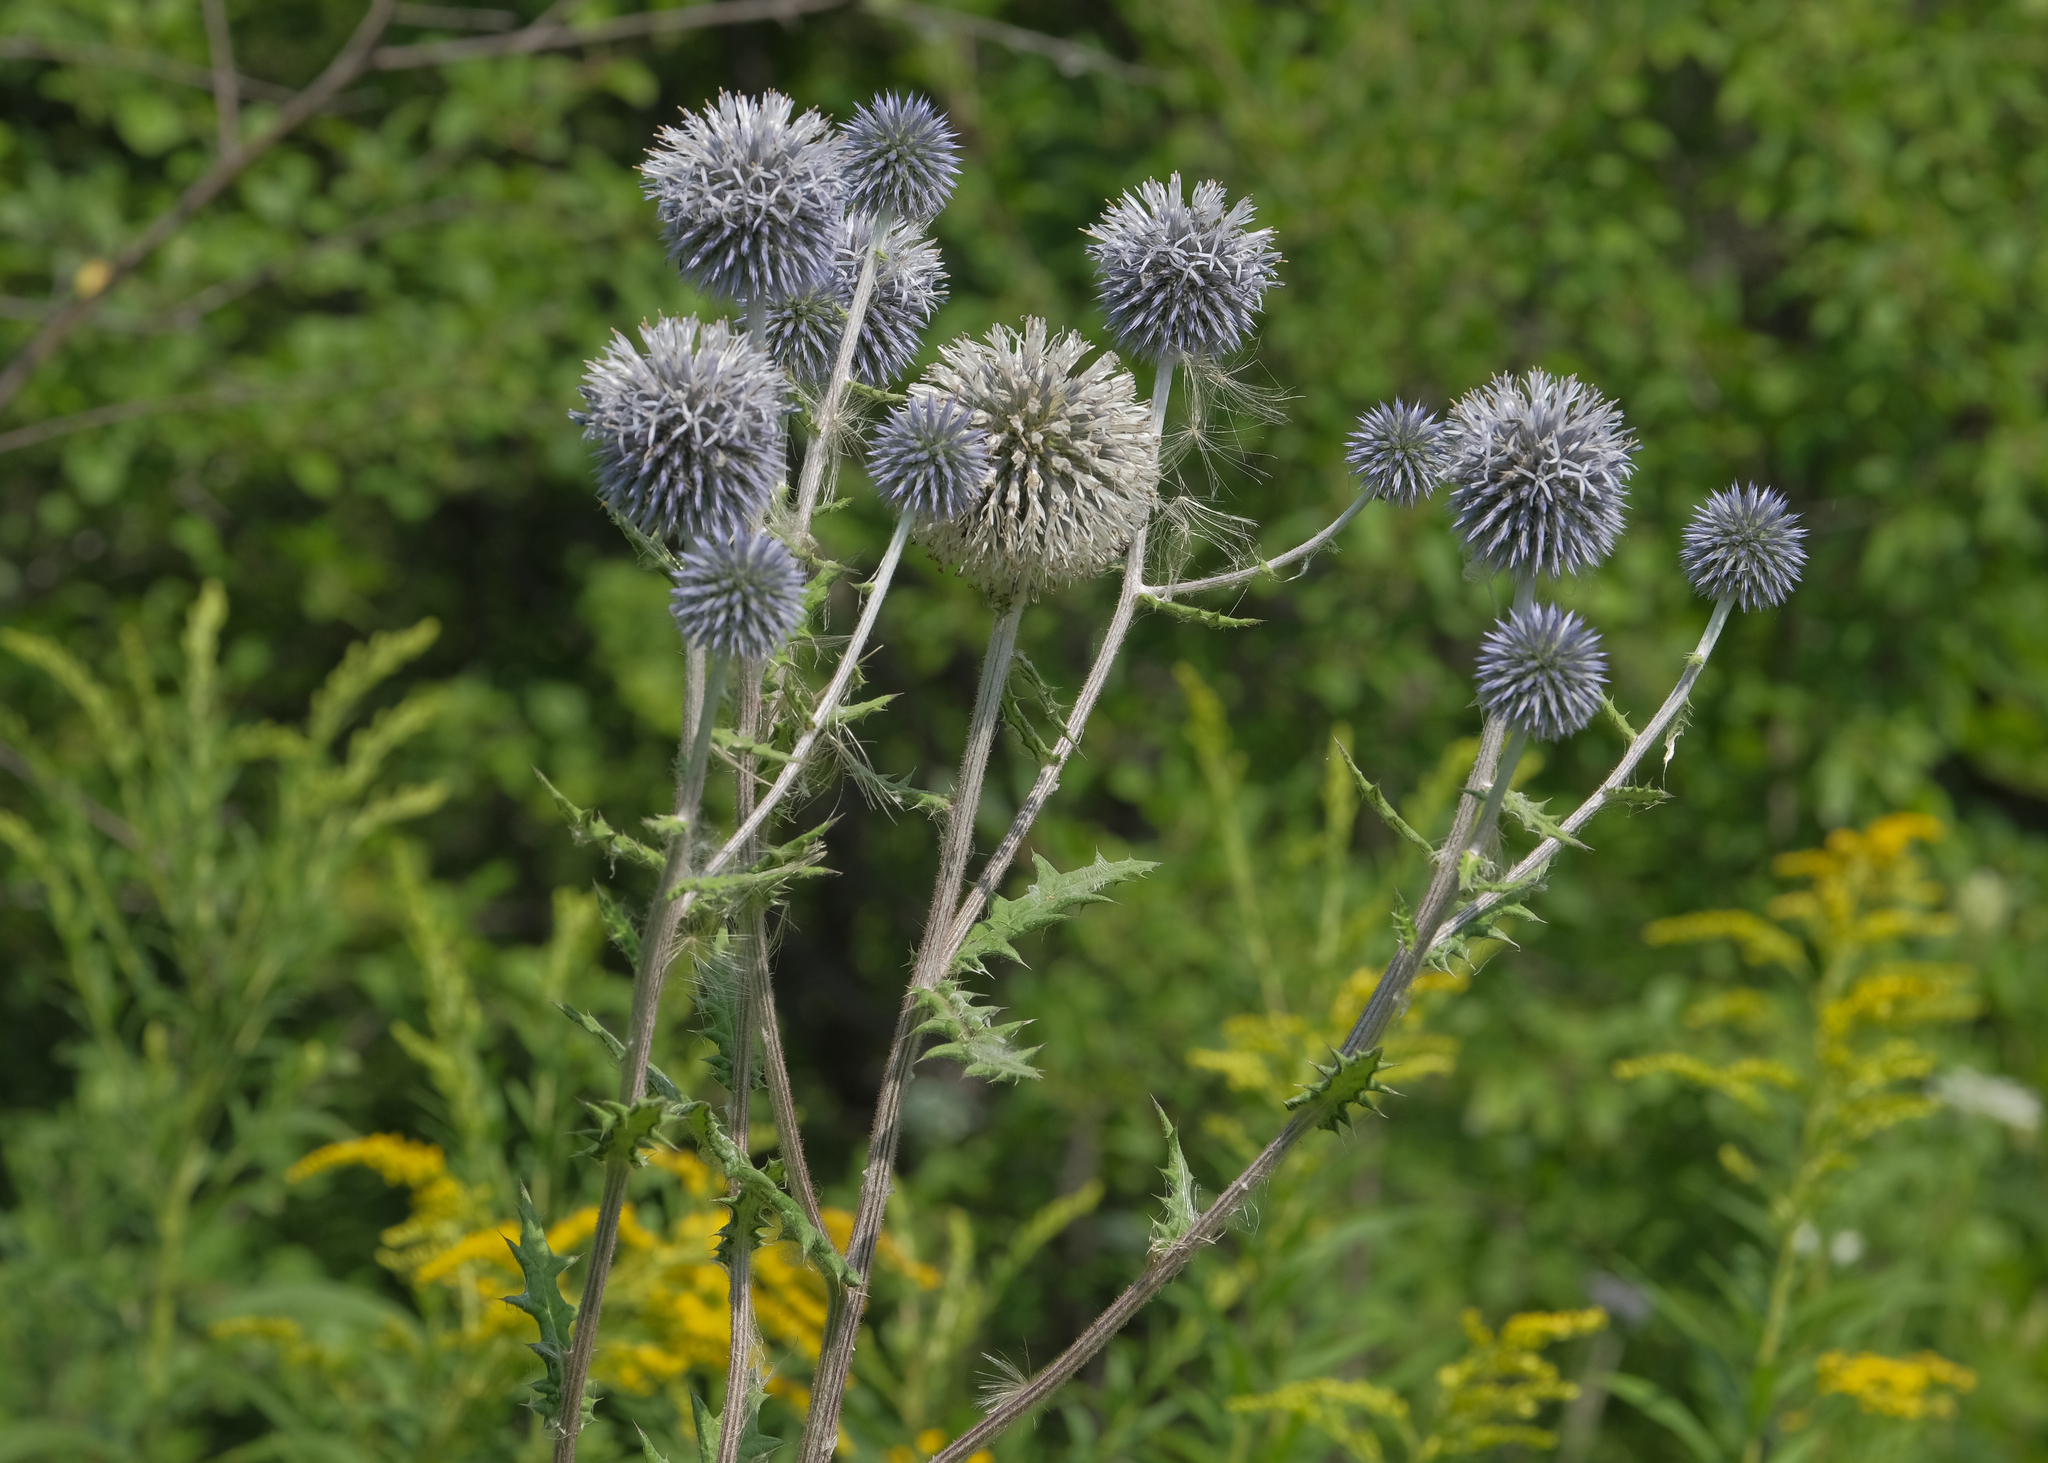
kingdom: Plantae
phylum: Tracheophyta
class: Magnoliopsida
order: Asterales
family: Asteraceae
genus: Echinops
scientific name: Echinops sphaerocephalus
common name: Glandular globe-thistle
